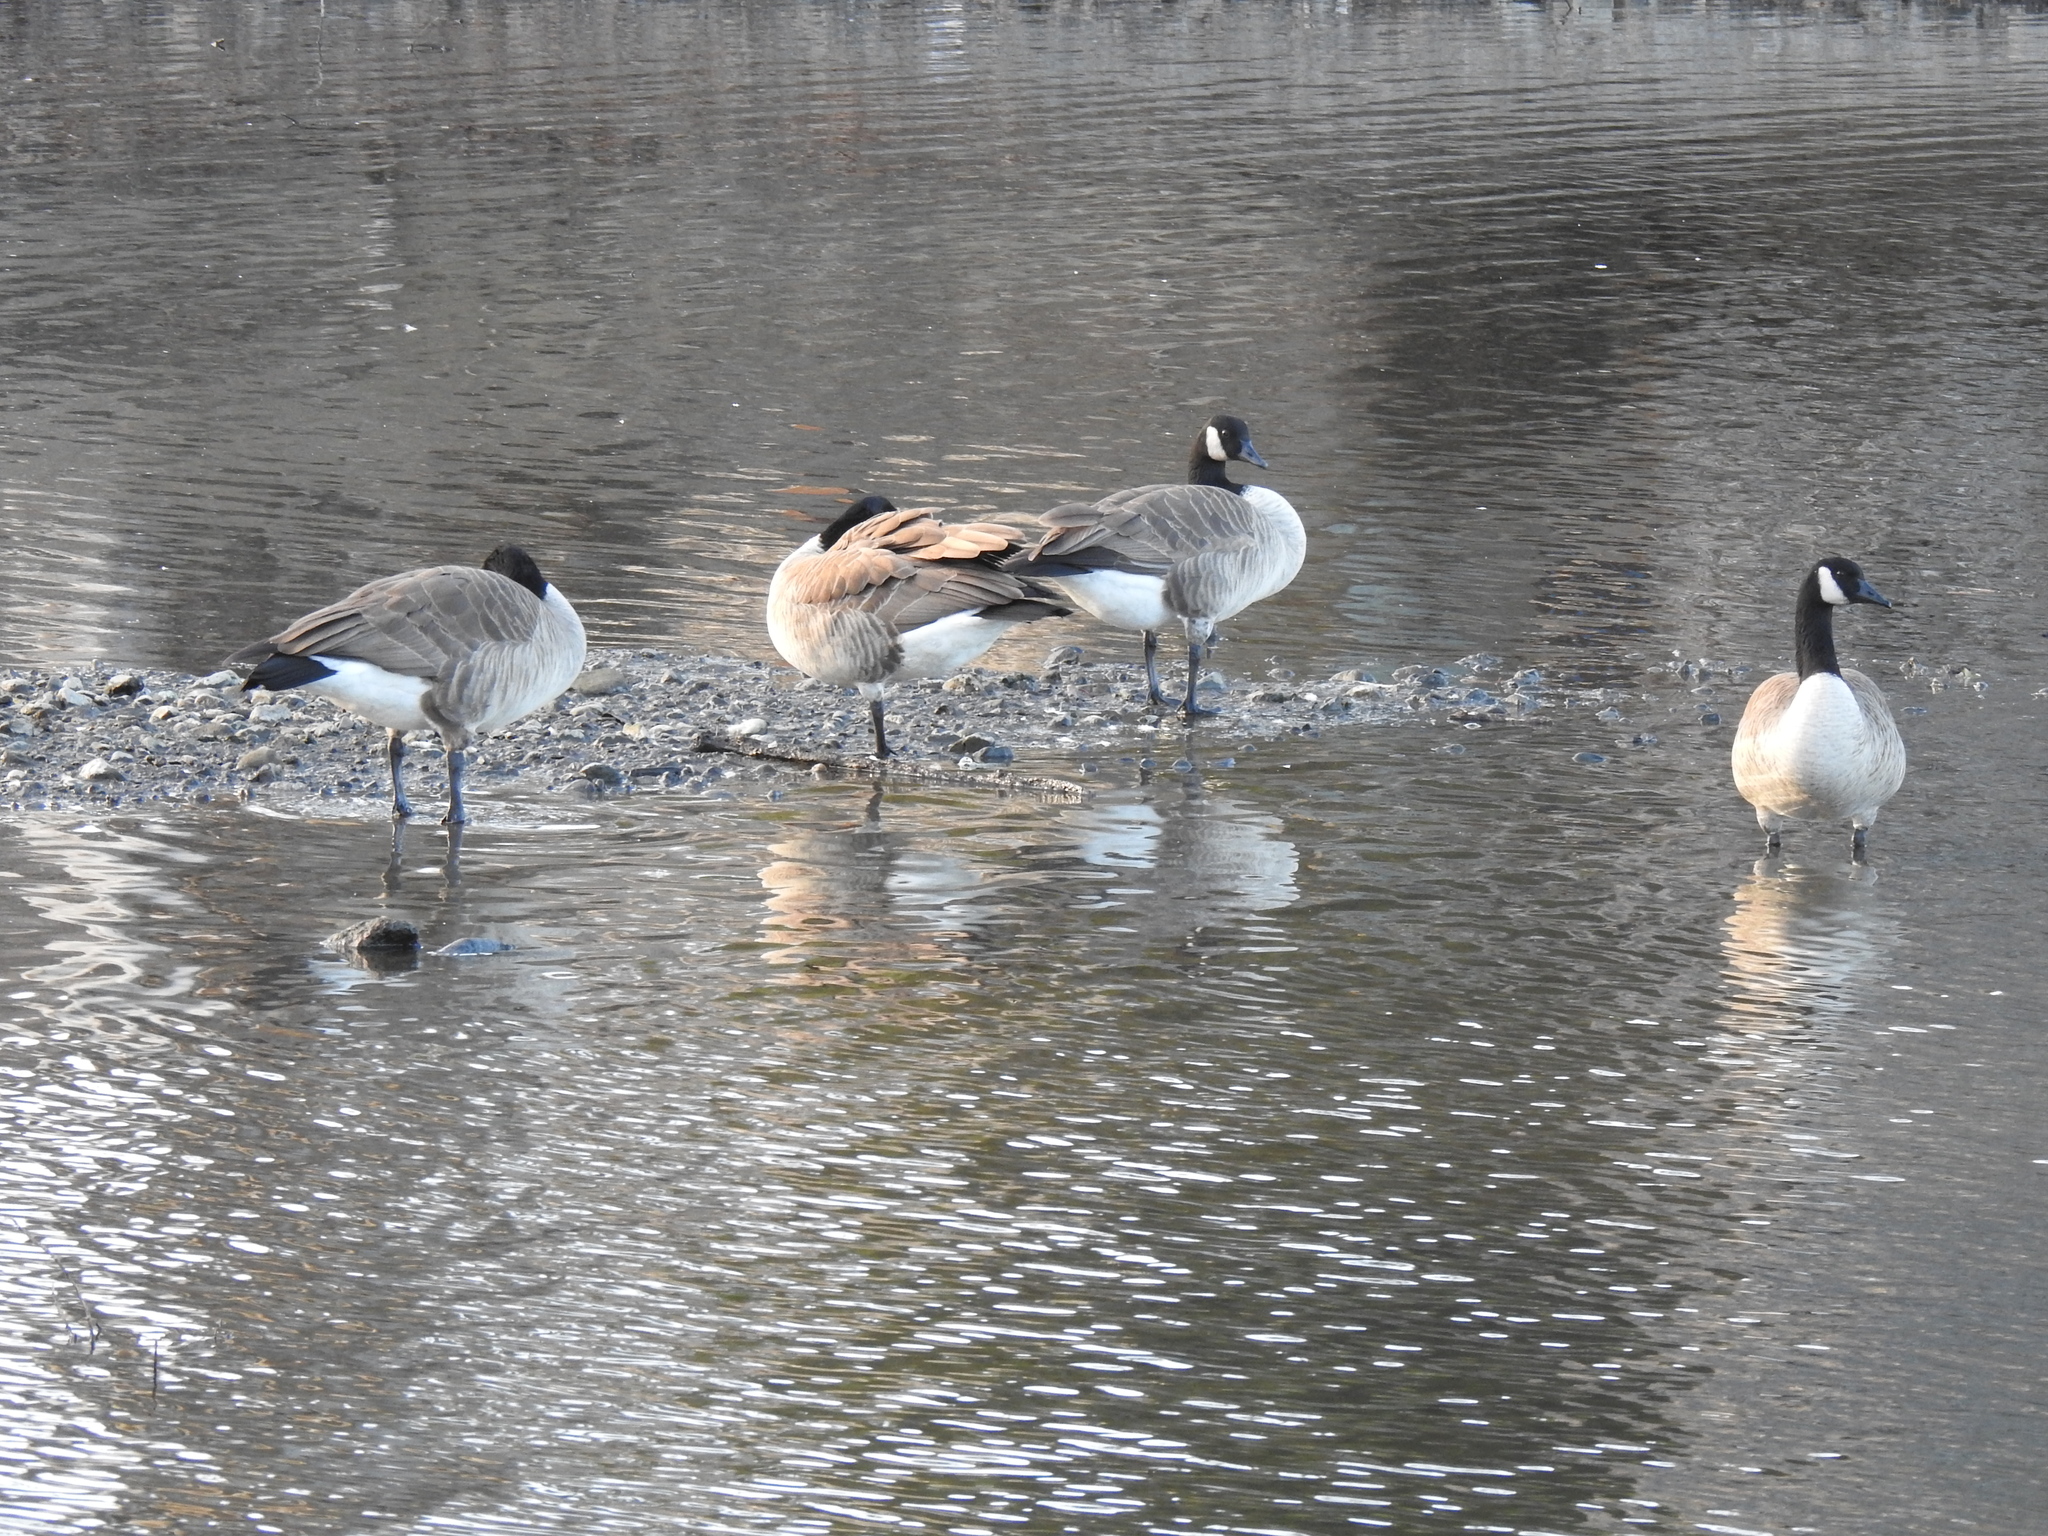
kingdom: Animalia
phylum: Chordata
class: Aves
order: Anseriformes
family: Anatidae
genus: Branta
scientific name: Branta canadensis
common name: Canada goose
